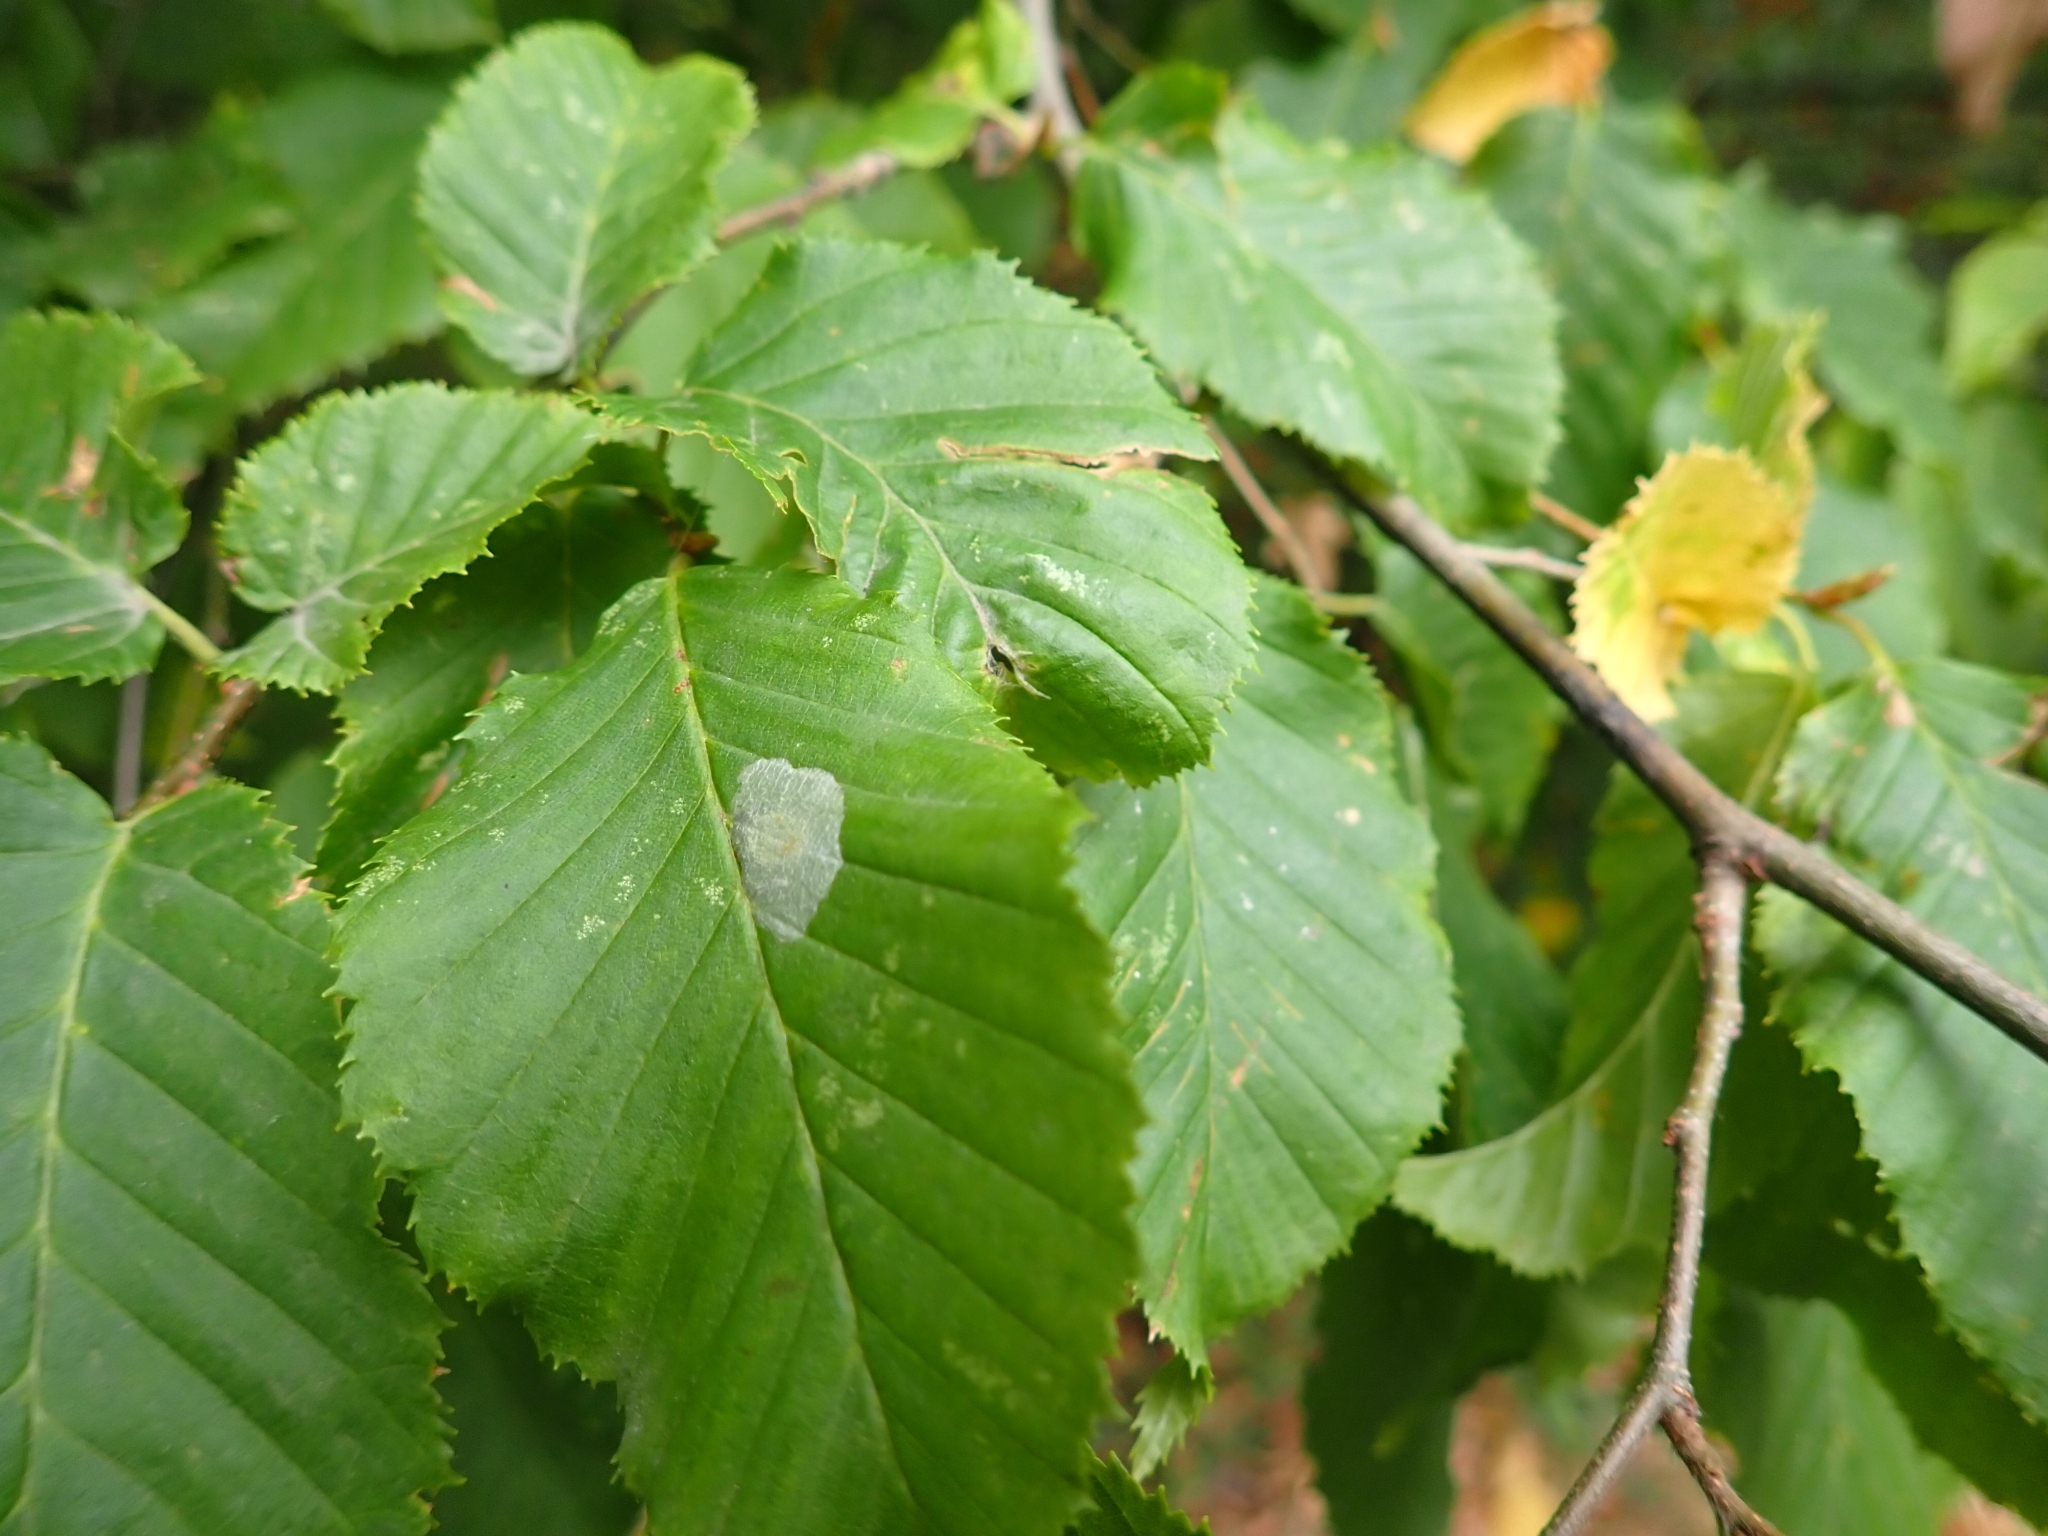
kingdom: Plantae
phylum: Tracheophyta
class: Magnoliopsida
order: Fagales
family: Betulaceae
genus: Carpinus
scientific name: Carpinus betulus
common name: Hornbeam
